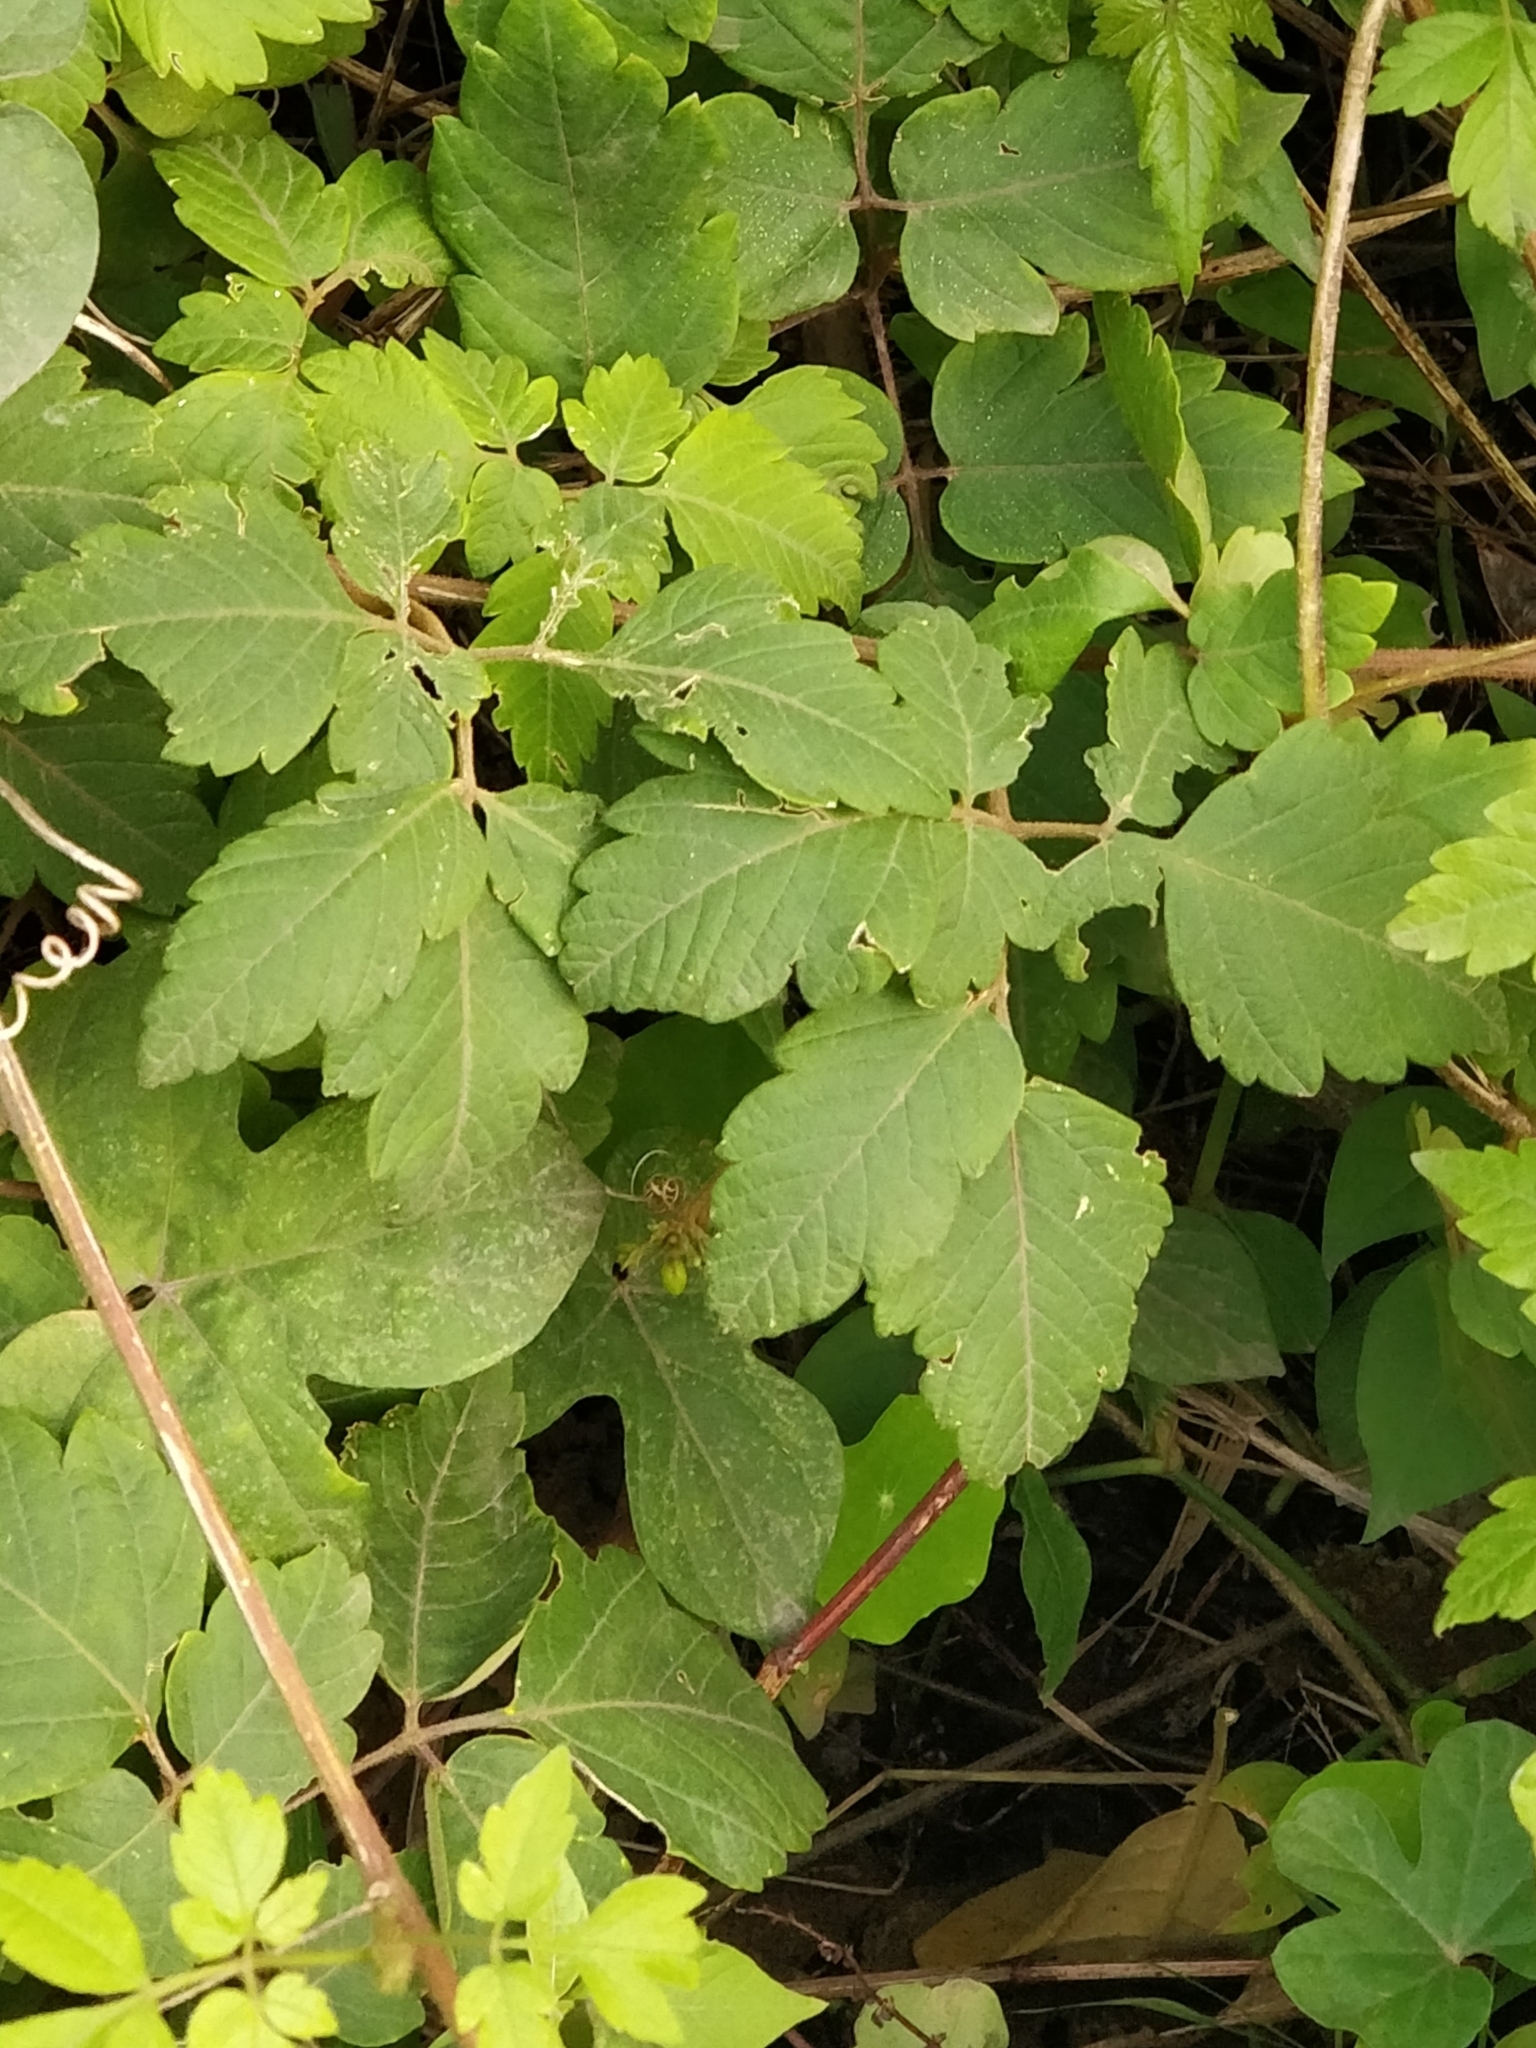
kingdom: Plantae
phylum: Tracheophyta
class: Magnoliopsida
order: Sapindales
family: Sapindaceae
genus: Cardiospermum
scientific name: Cardiospermum grandiflorum
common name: Balloon vine
